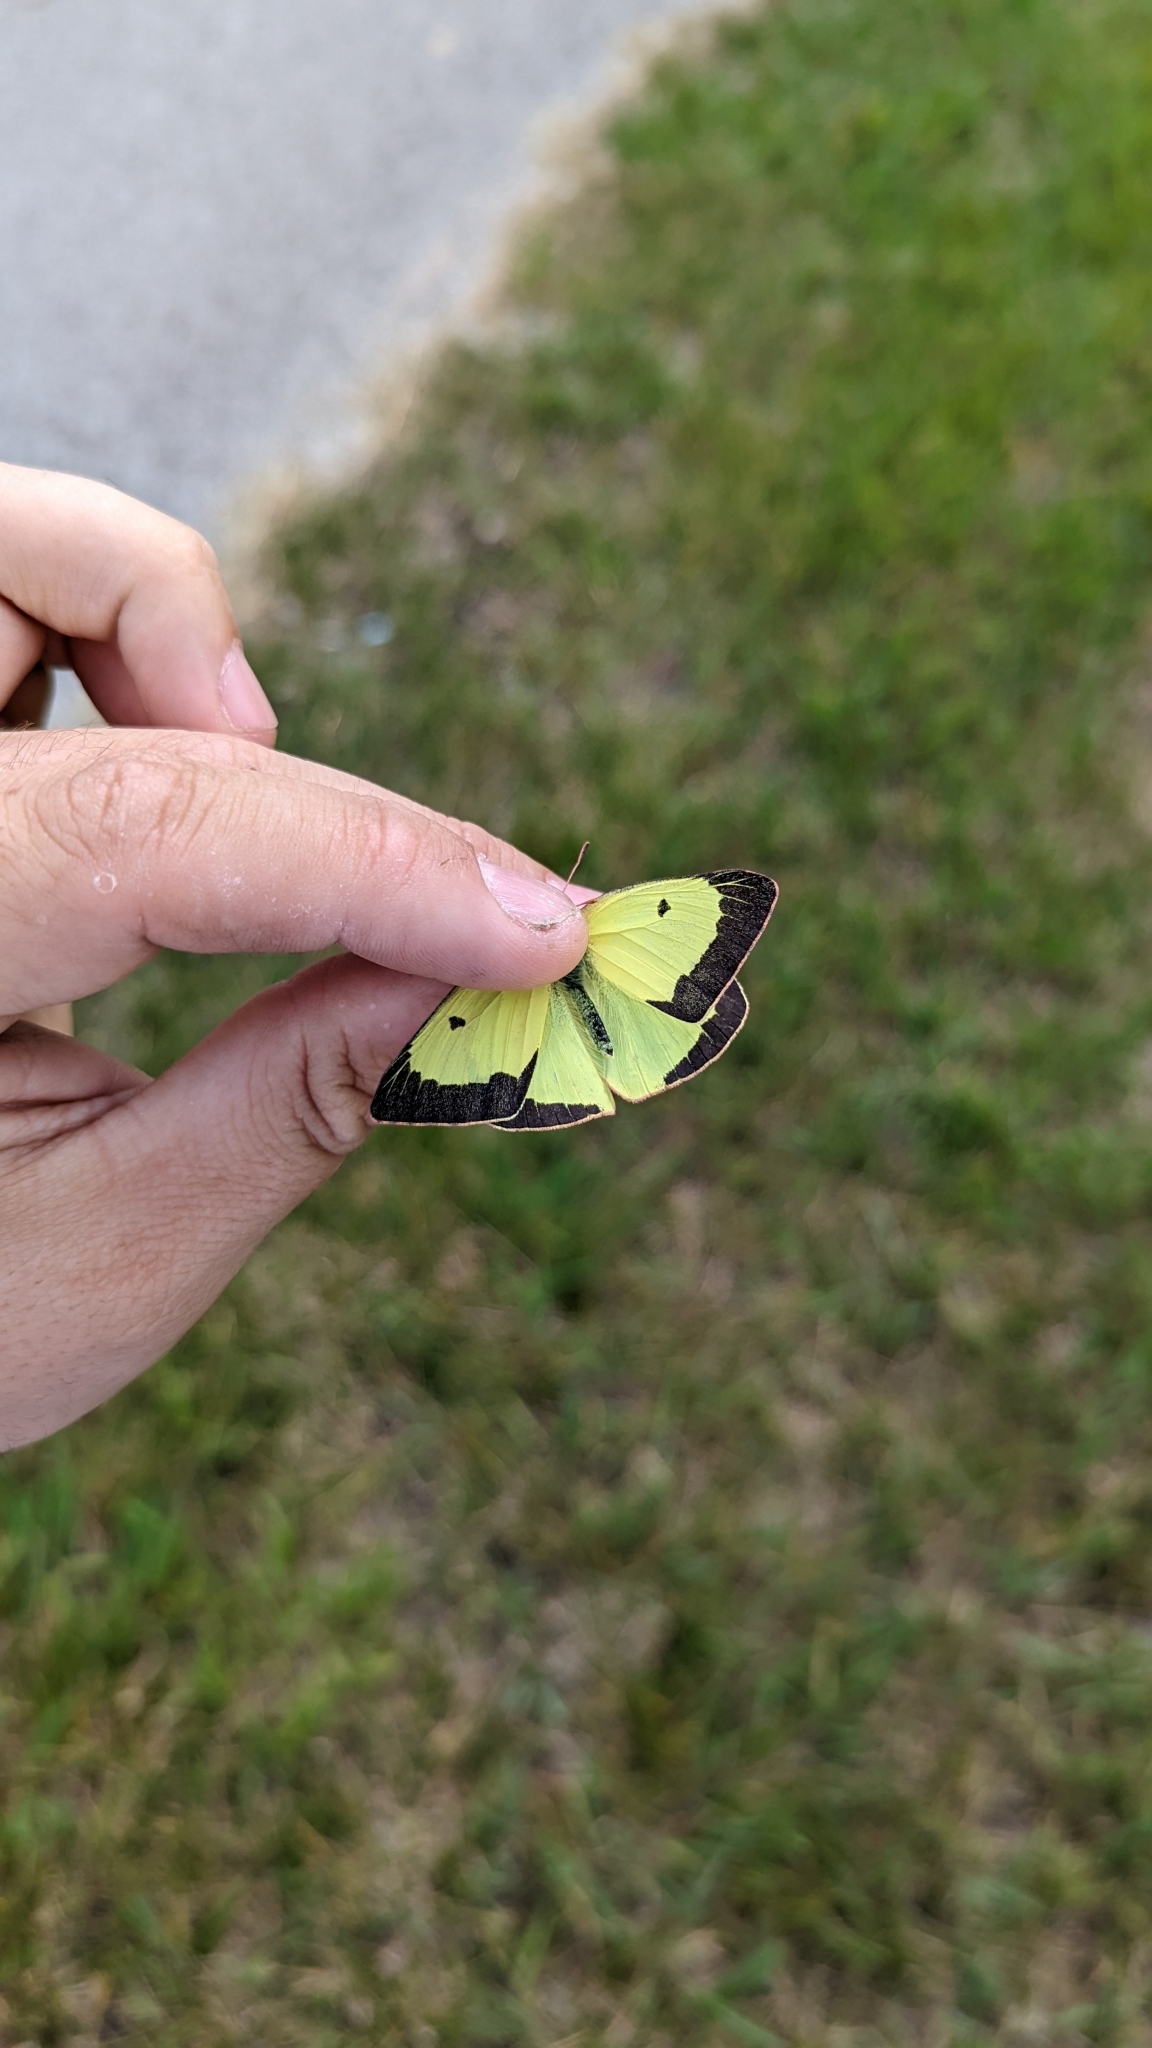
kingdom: Animalia
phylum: Arthropoda
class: Insecta
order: Lepidoptera
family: Pieridae
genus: Colias
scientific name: Colias philodice
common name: Clouded sulphur
